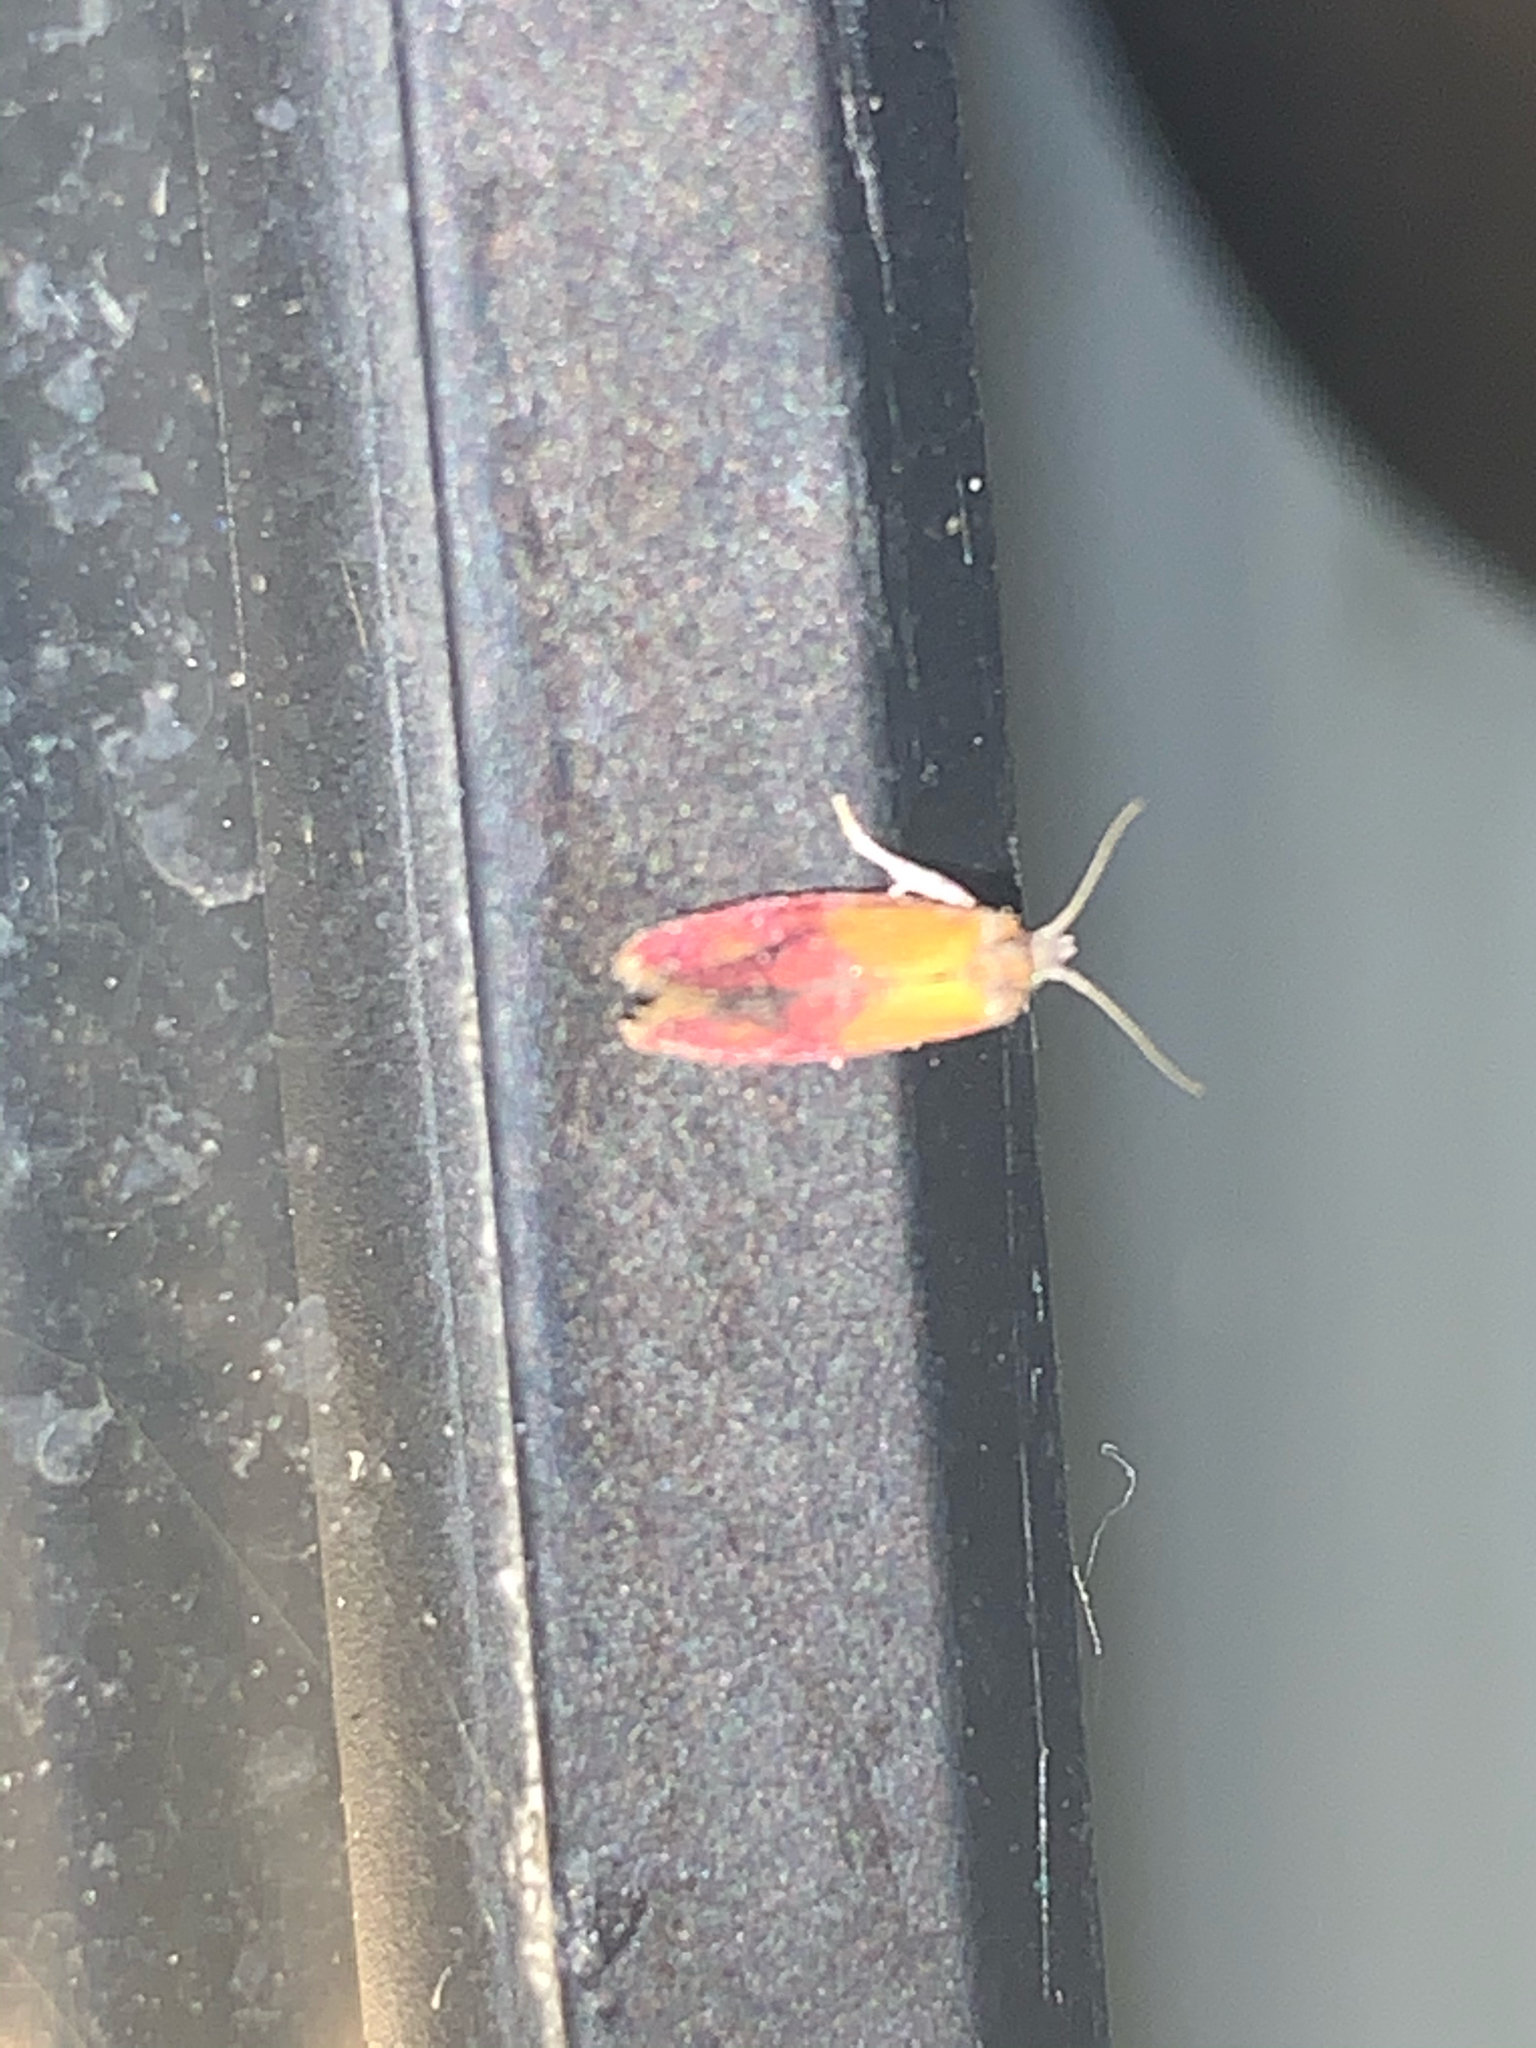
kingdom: Animalia
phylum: Arthropoda
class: Insecta
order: Lepidoptera
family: Tortricidae
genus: Conchylis
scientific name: Conchylis oenotherana
